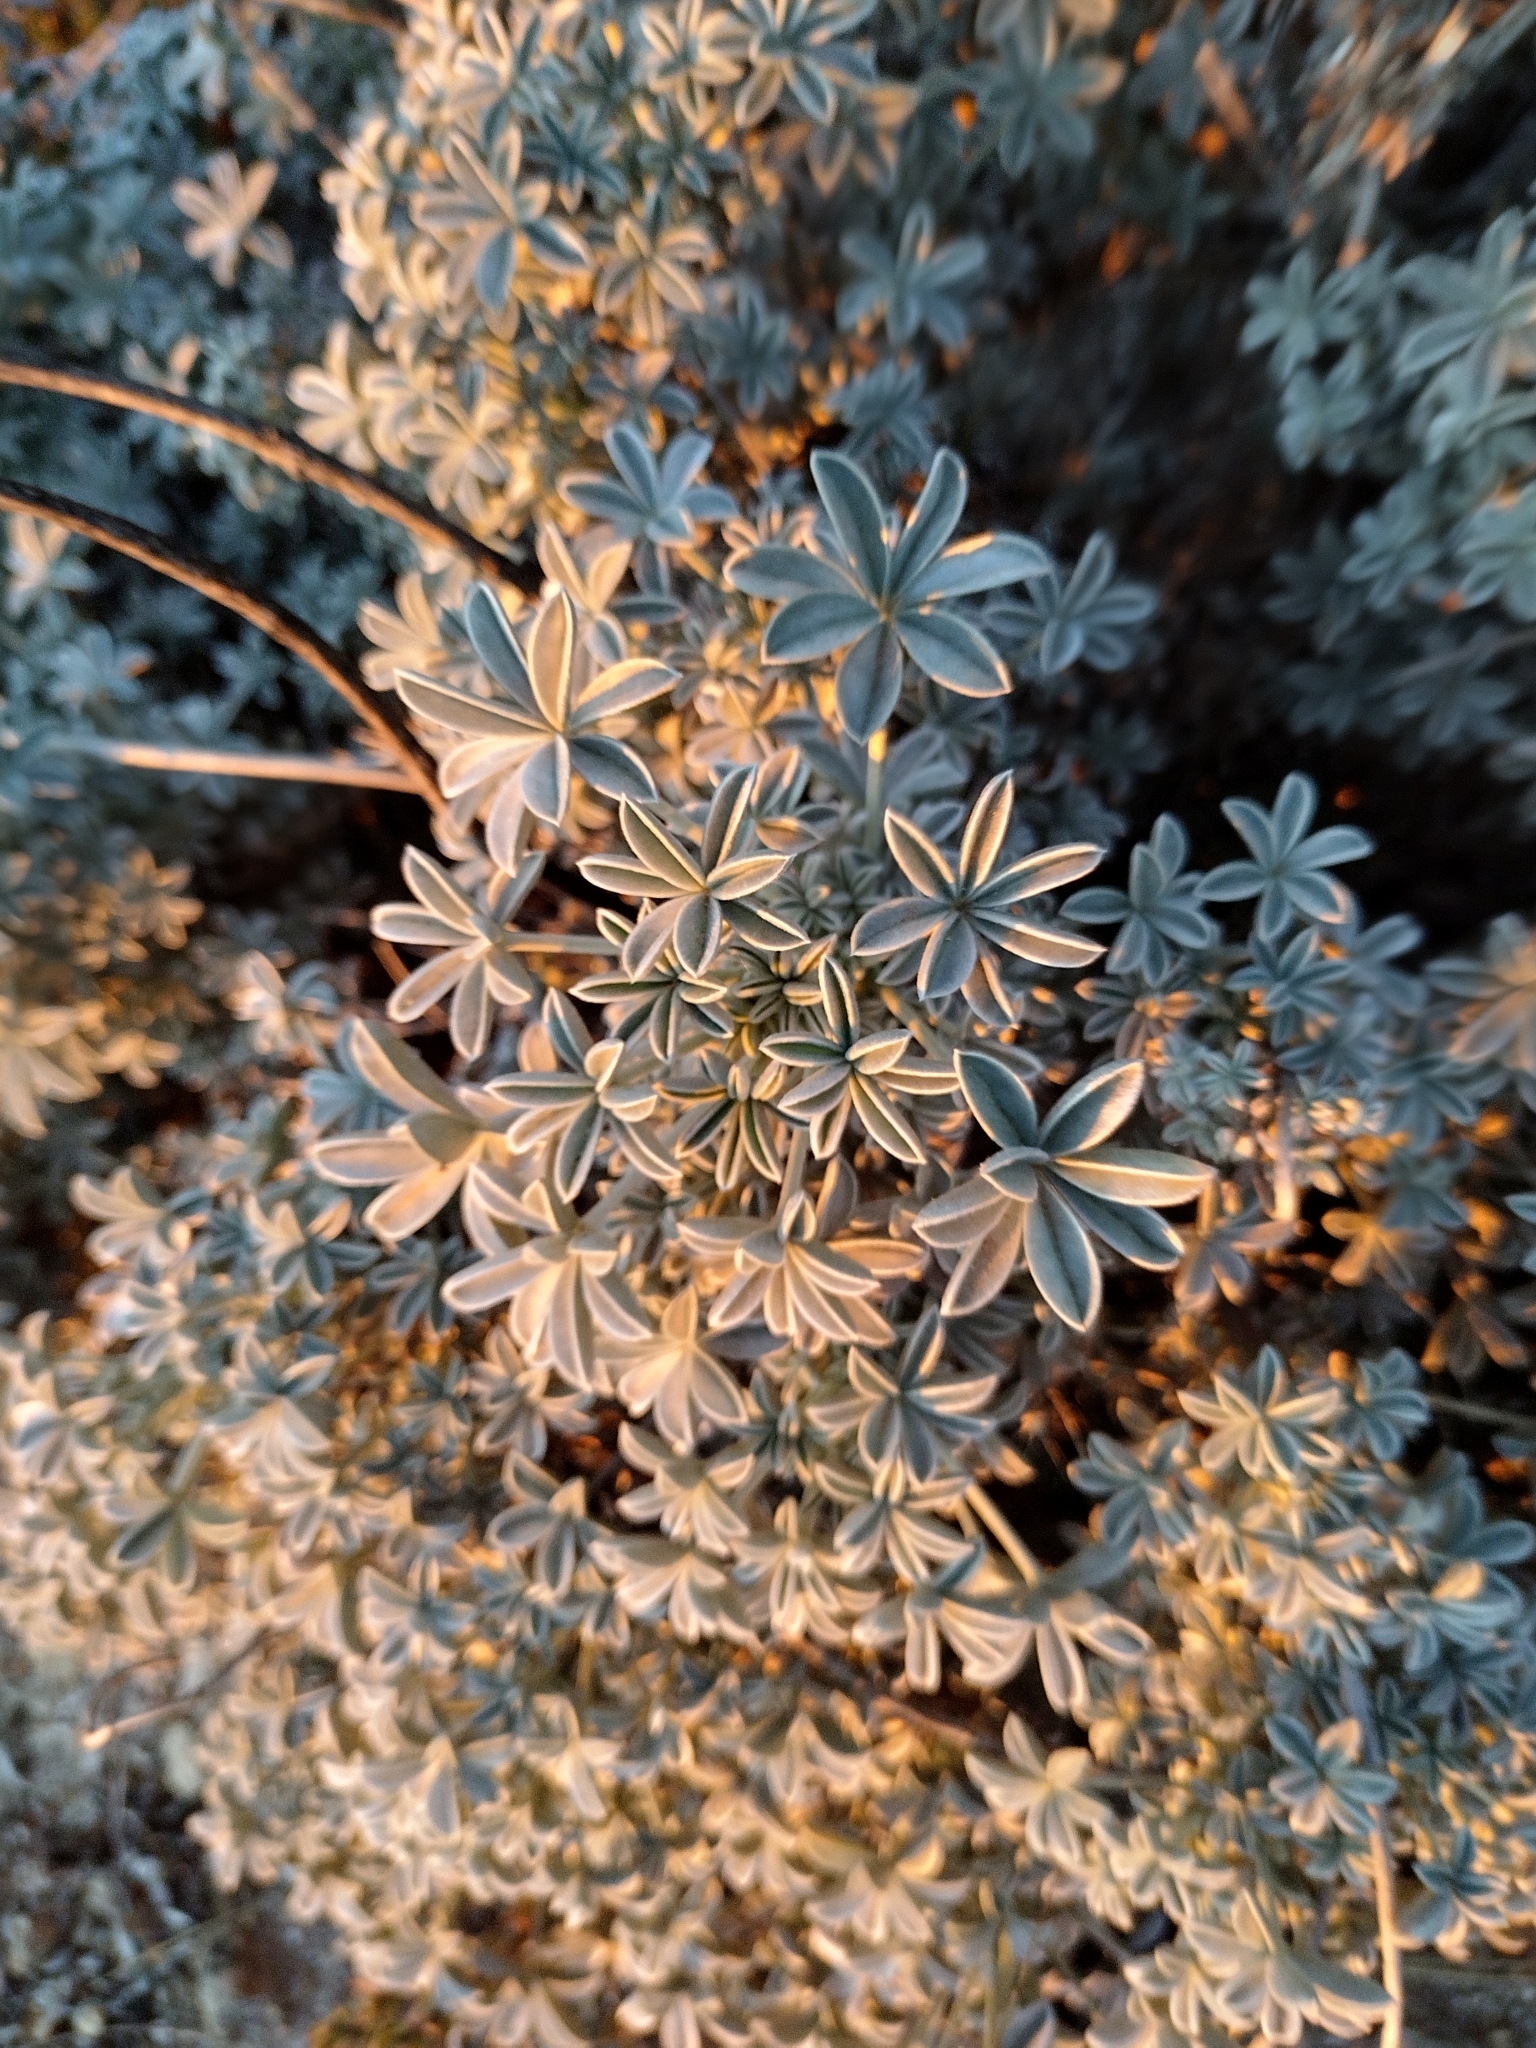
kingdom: Plantae
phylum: Tracheophyta
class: Magnoliopsida
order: Fabales
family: Fabaceae
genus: Lupinus
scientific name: Lupinus excubitus
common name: Grape soda lupine
